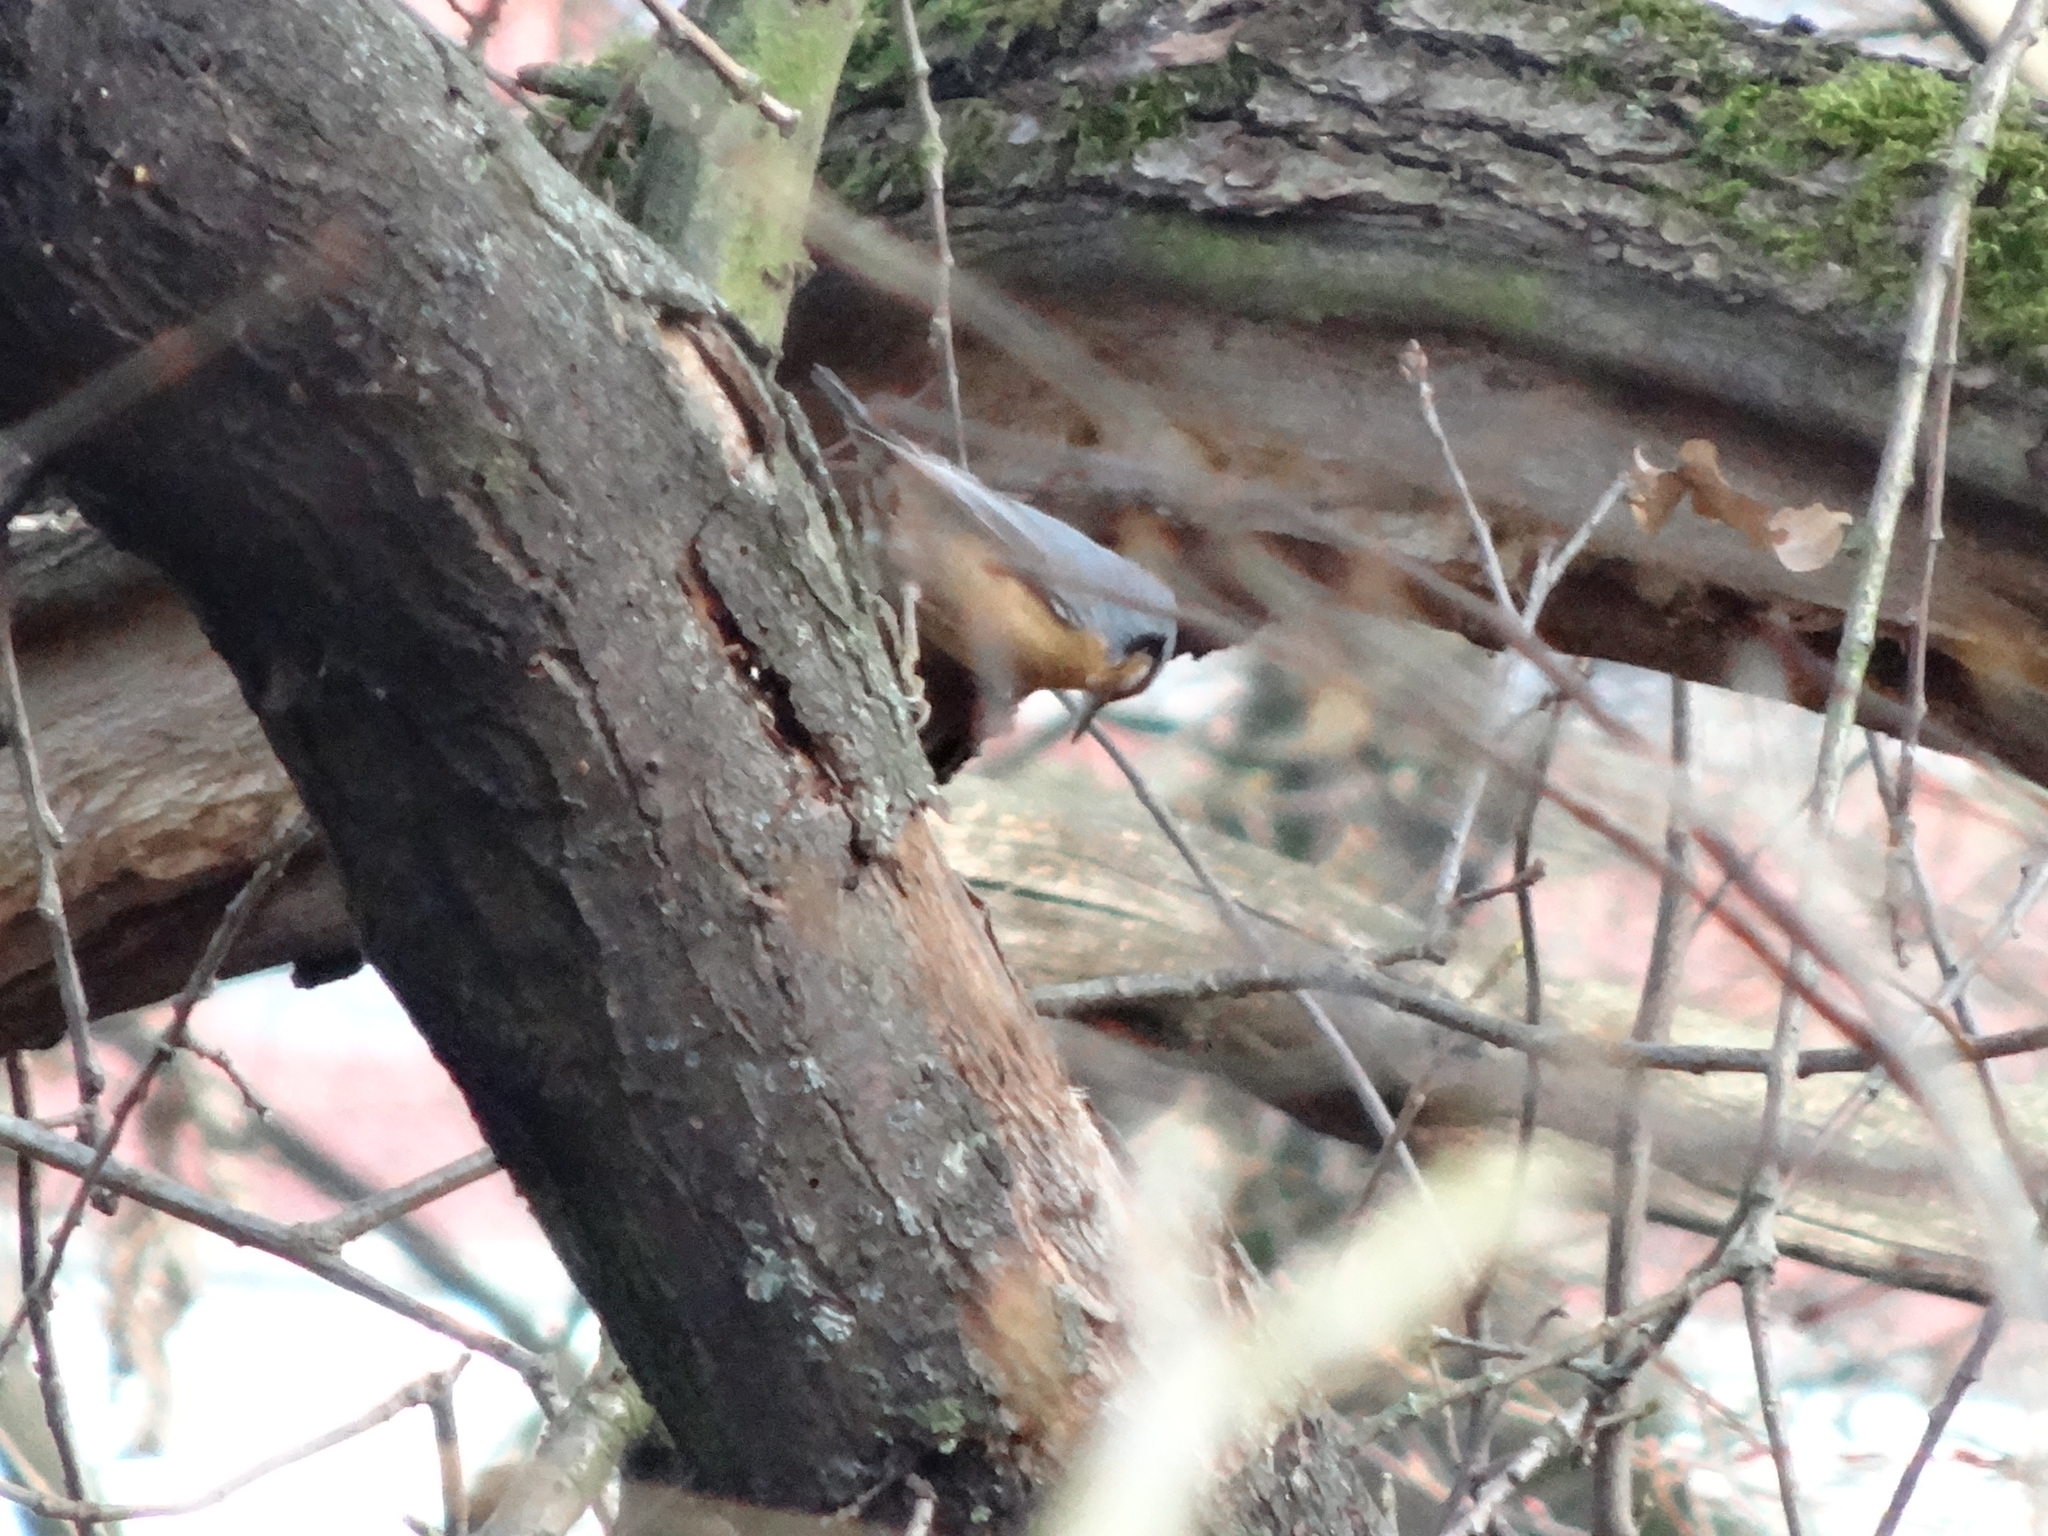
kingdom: Animalia
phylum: Chordata
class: Aves
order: Passeriformes
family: Sittidae
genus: Sitta
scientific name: Sitta europaea
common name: Eurasian nuthatch
